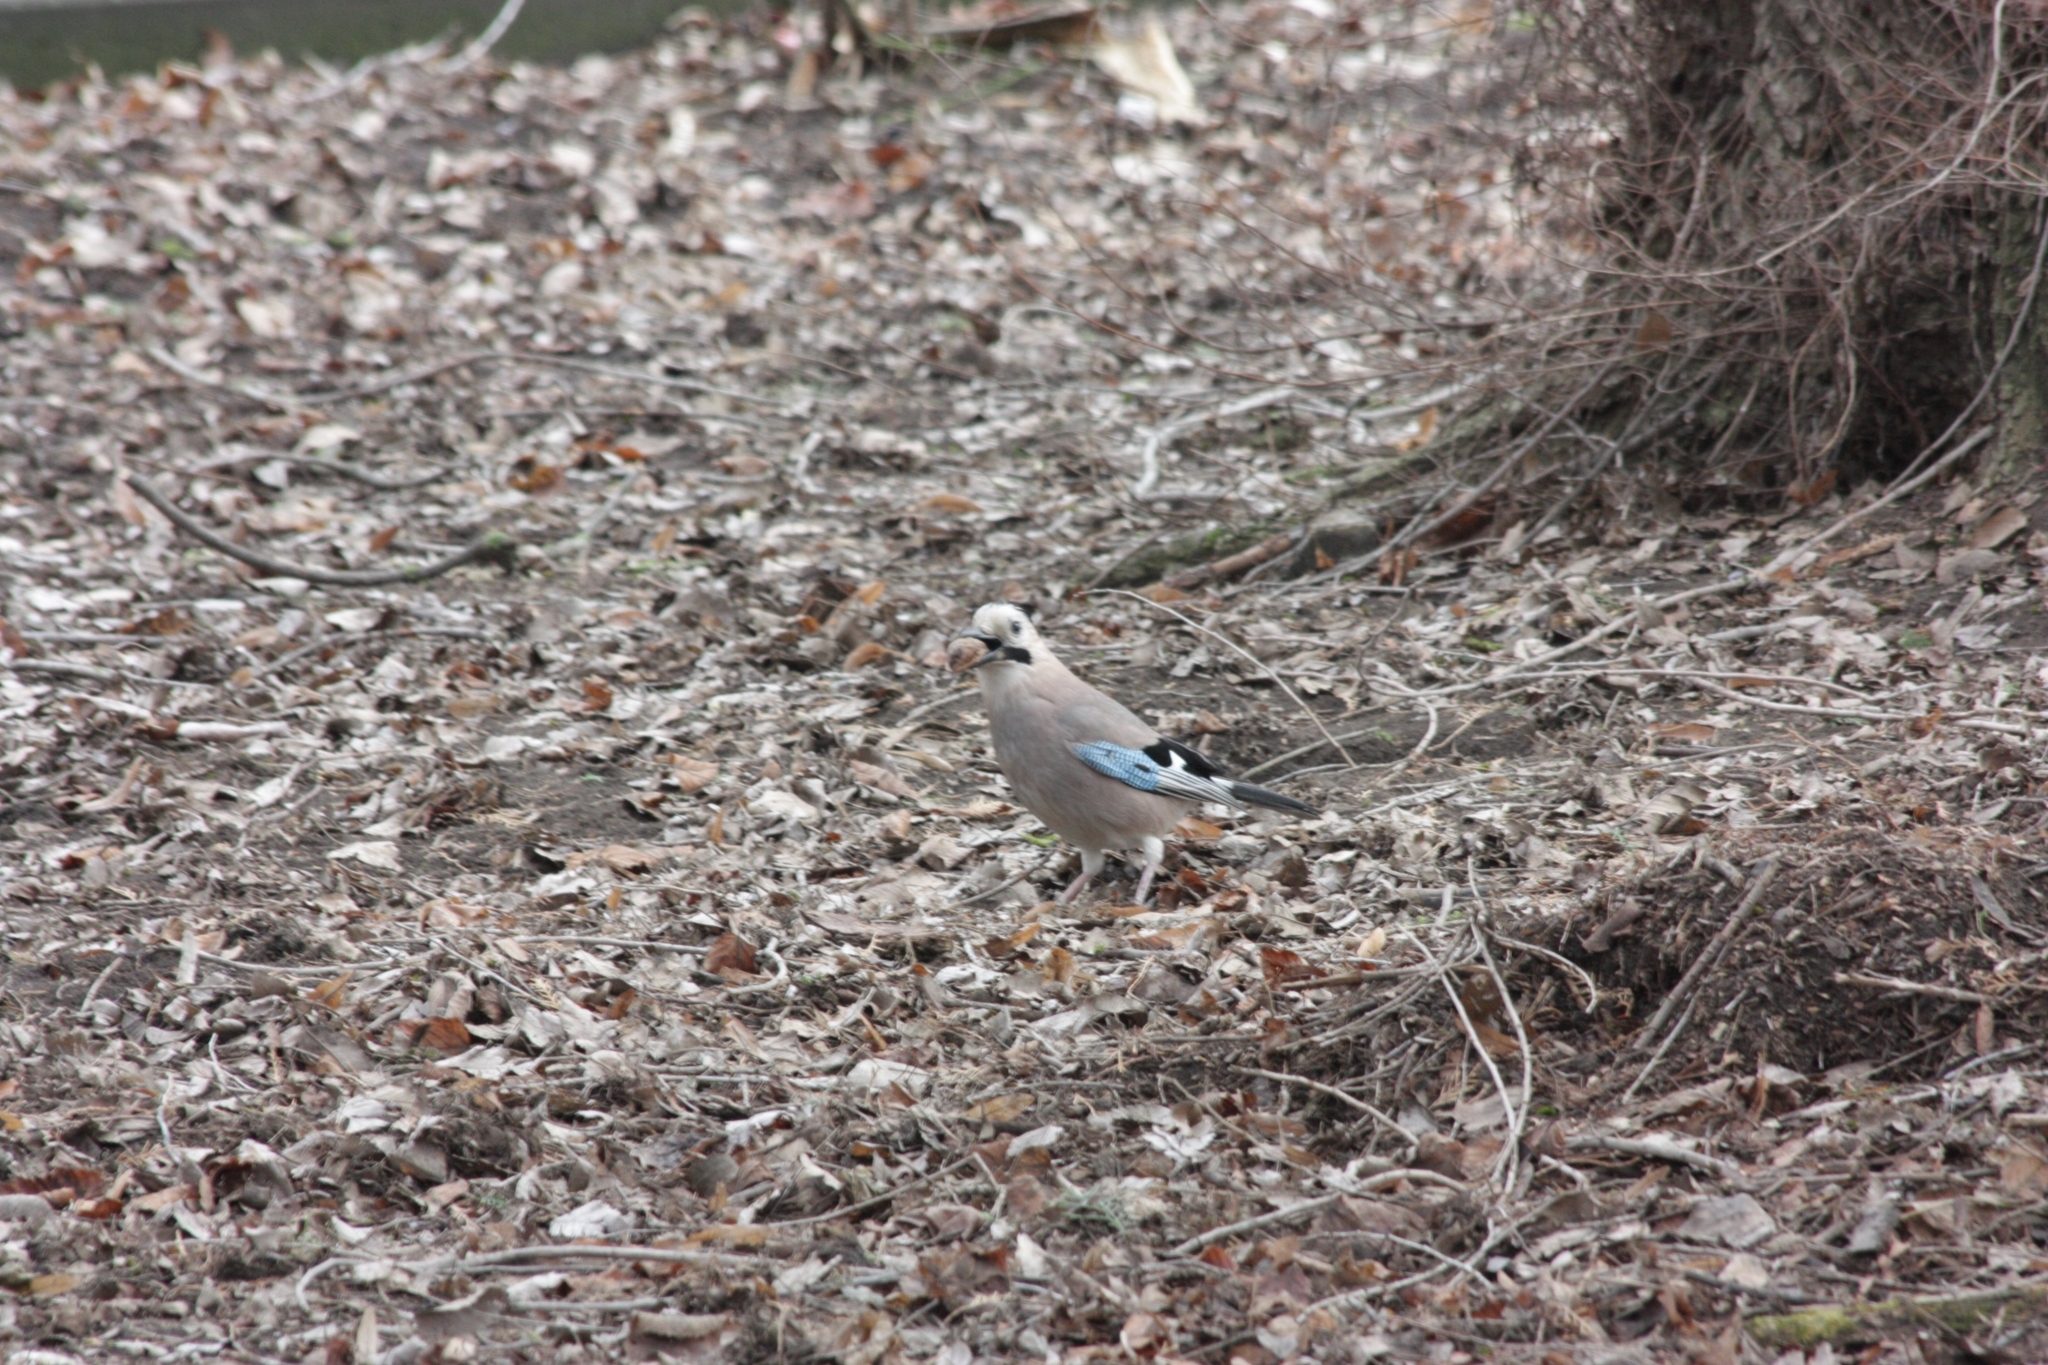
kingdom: Animalia
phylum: Chordata
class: Aves
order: Passeriformes
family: Corvidae
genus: Garrulus
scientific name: Garrulus glandarius
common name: Eurasian jay
